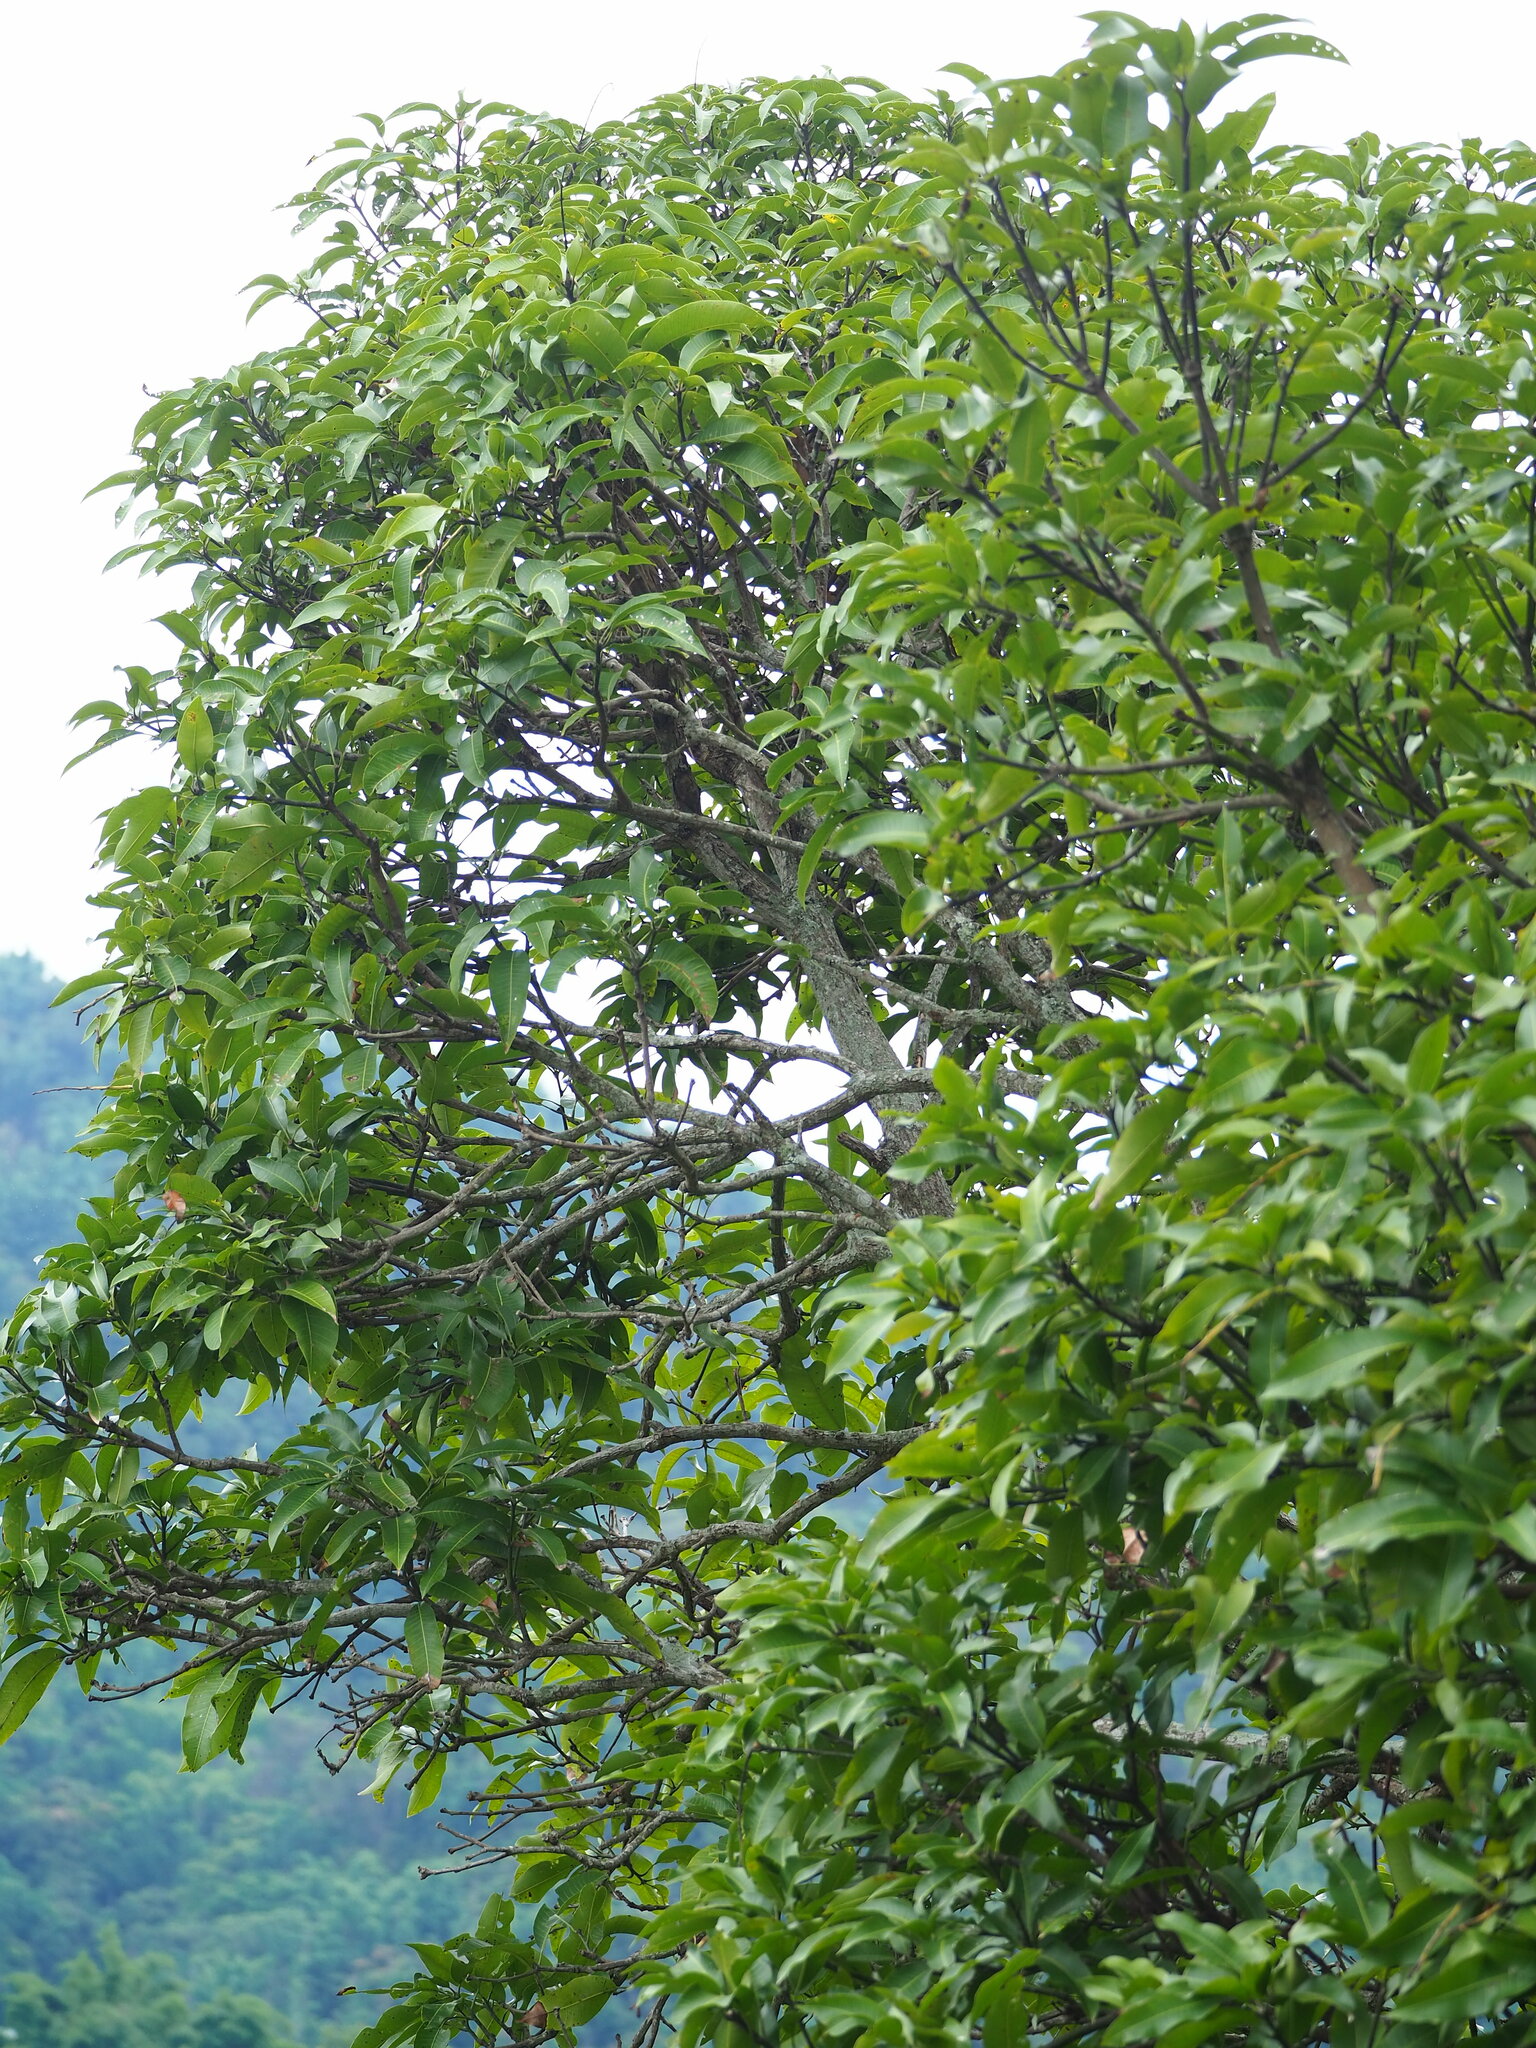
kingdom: Plantae
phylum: Tracheophyta
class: Magnoliopsida
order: Sapindales
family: Anacardiaceae
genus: Mangifera
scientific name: Mangifera indica
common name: Mango
